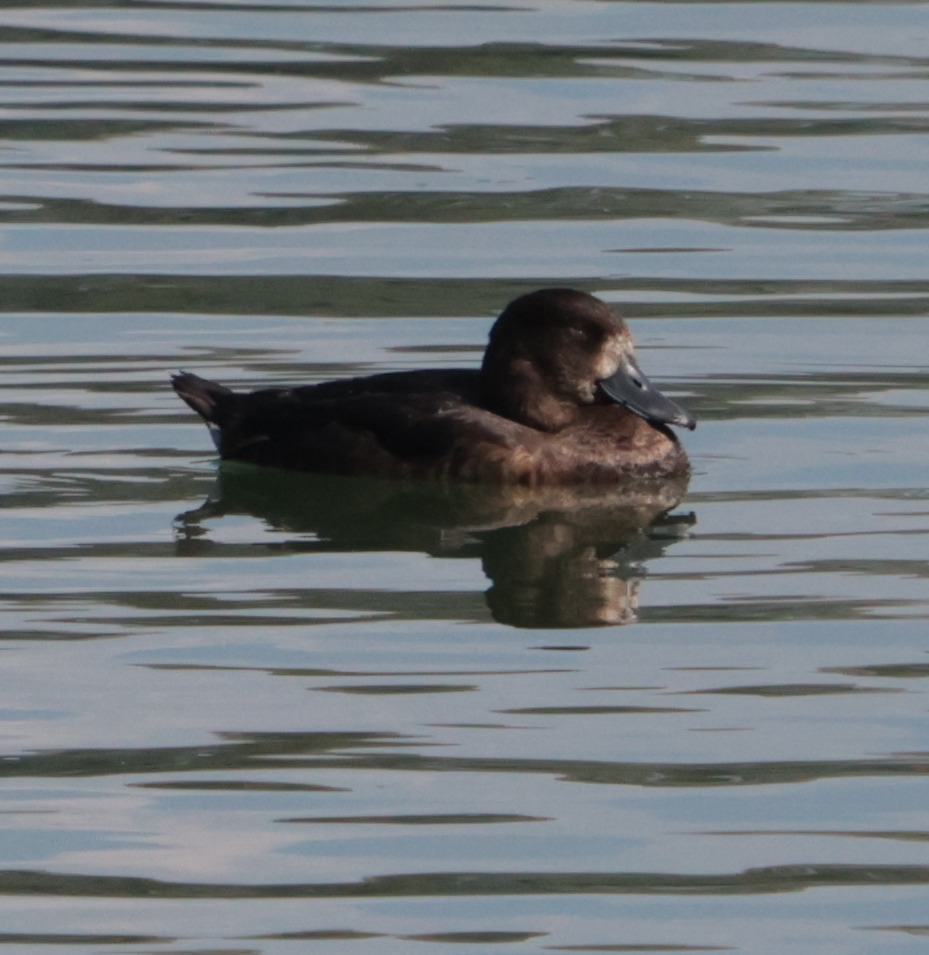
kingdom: Animalia
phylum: Chordata
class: Aves
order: Anseriformes
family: Anatidae
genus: Aythya
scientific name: Aythya fuligula
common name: Tufted duck
